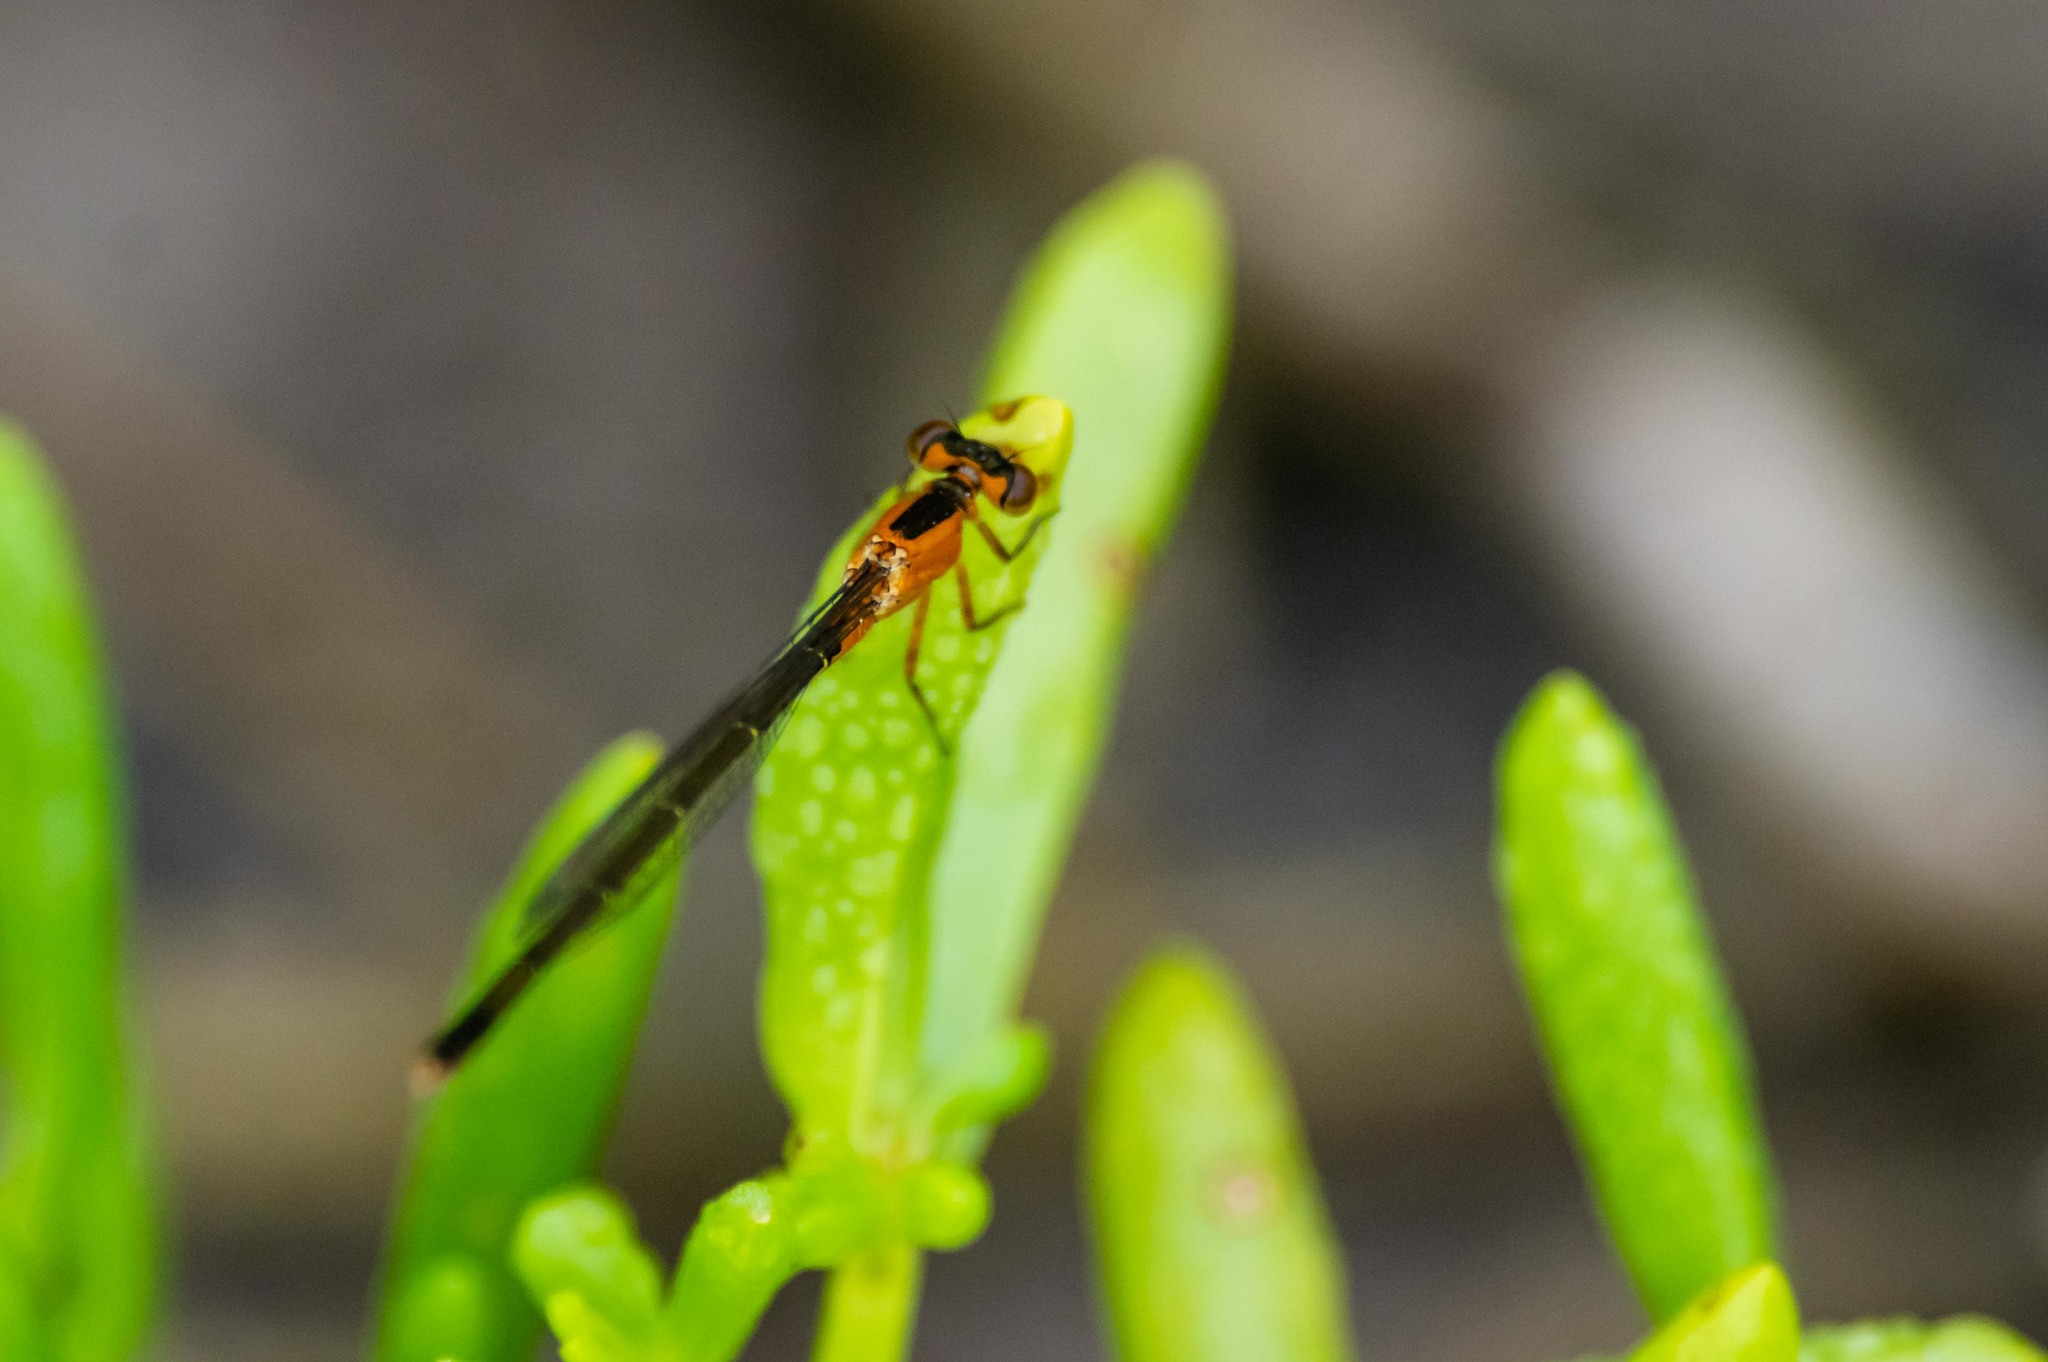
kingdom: Animalia
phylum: Arthropoda
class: Insecta
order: Odonata
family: Coenagrionidae
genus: Ischnura
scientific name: Ischnura ramburii
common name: Rambur's forktail
